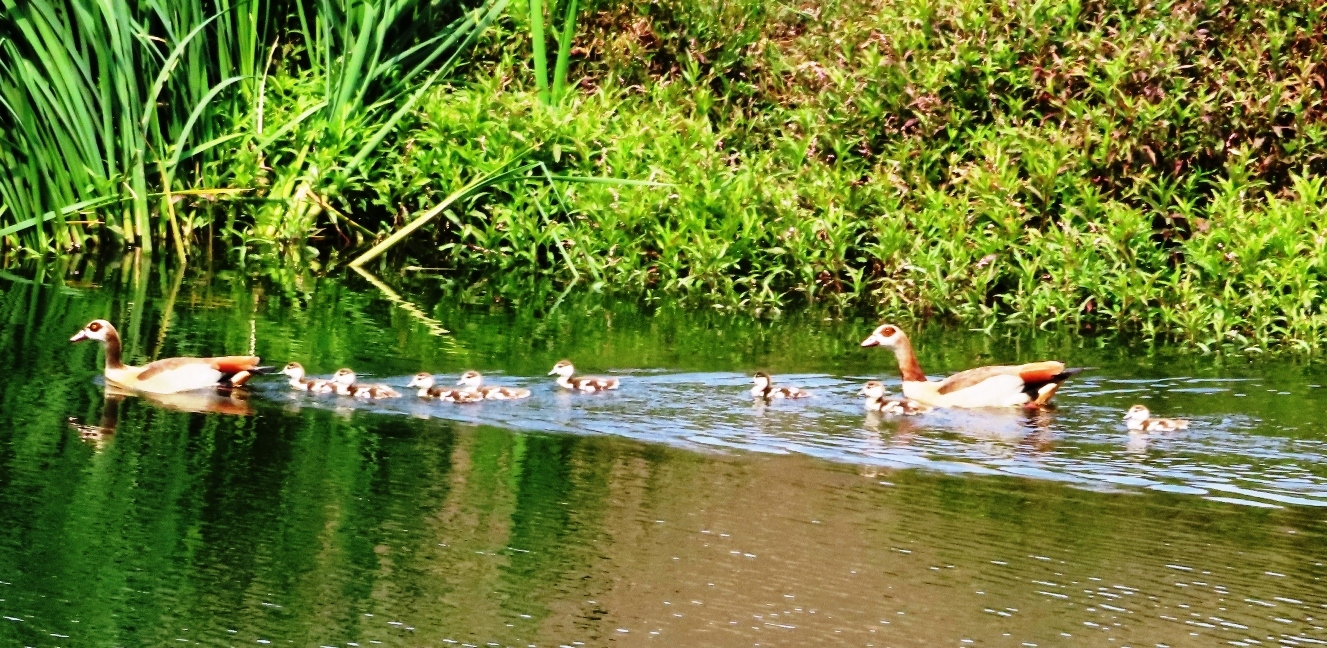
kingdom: Animalia
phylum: Chordata
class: Aves
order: Anseriformes
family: Anatidae
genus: Alopochen
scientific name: Alopochen aegyptiaca
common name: Egyptian goose
